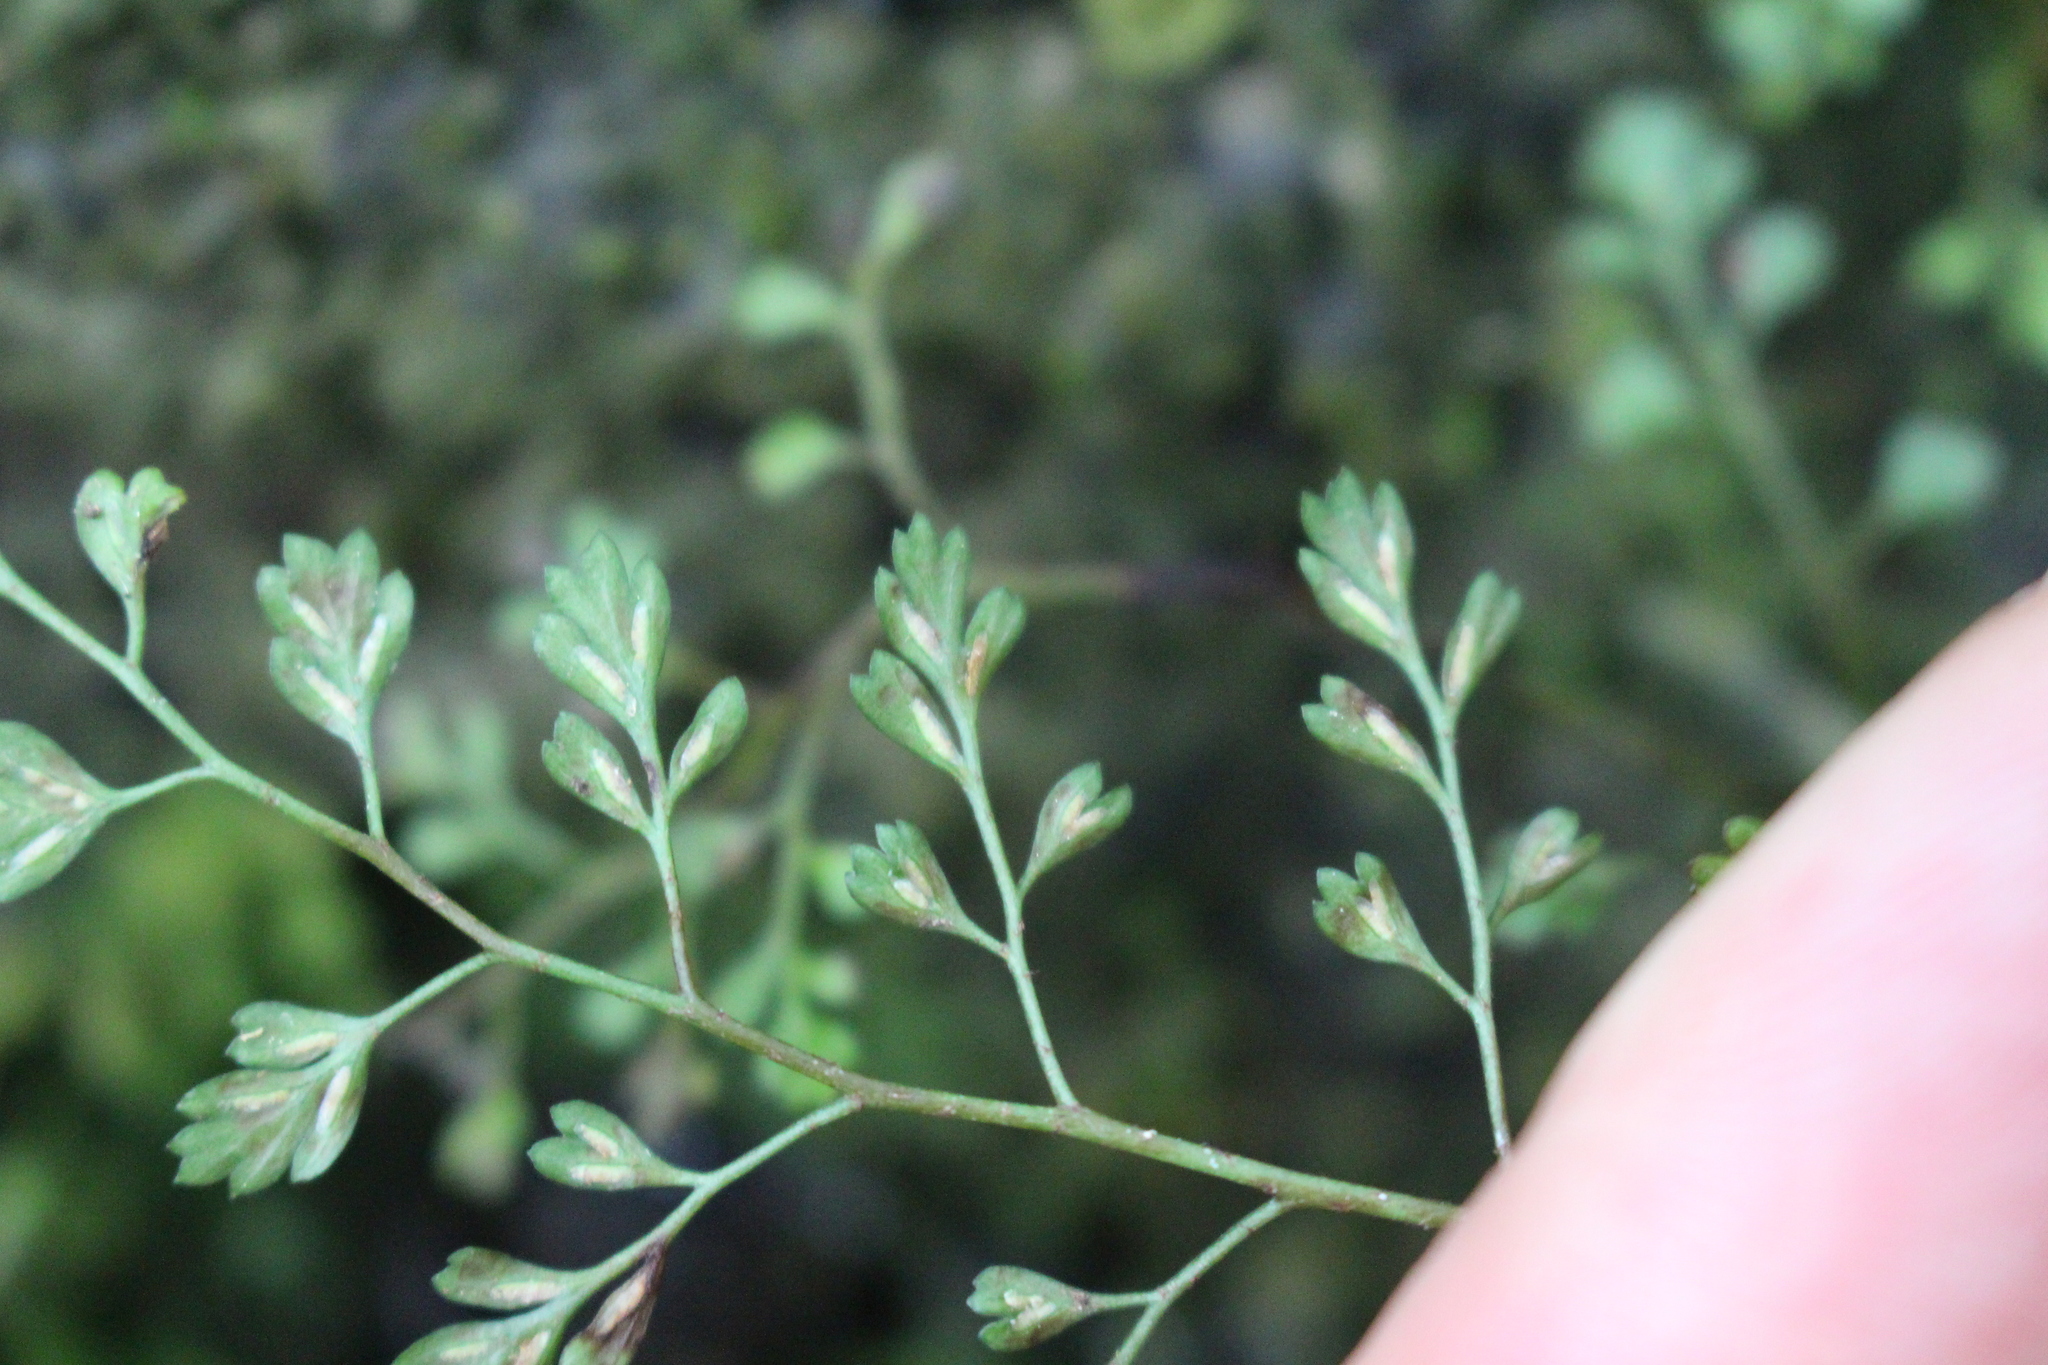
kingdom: Plantae
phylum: Tracheophyta
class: Polypodiopsida
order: Polypodiales
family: Aspleniaceae
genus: Asplenium
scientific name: Asplenium hookerianum
